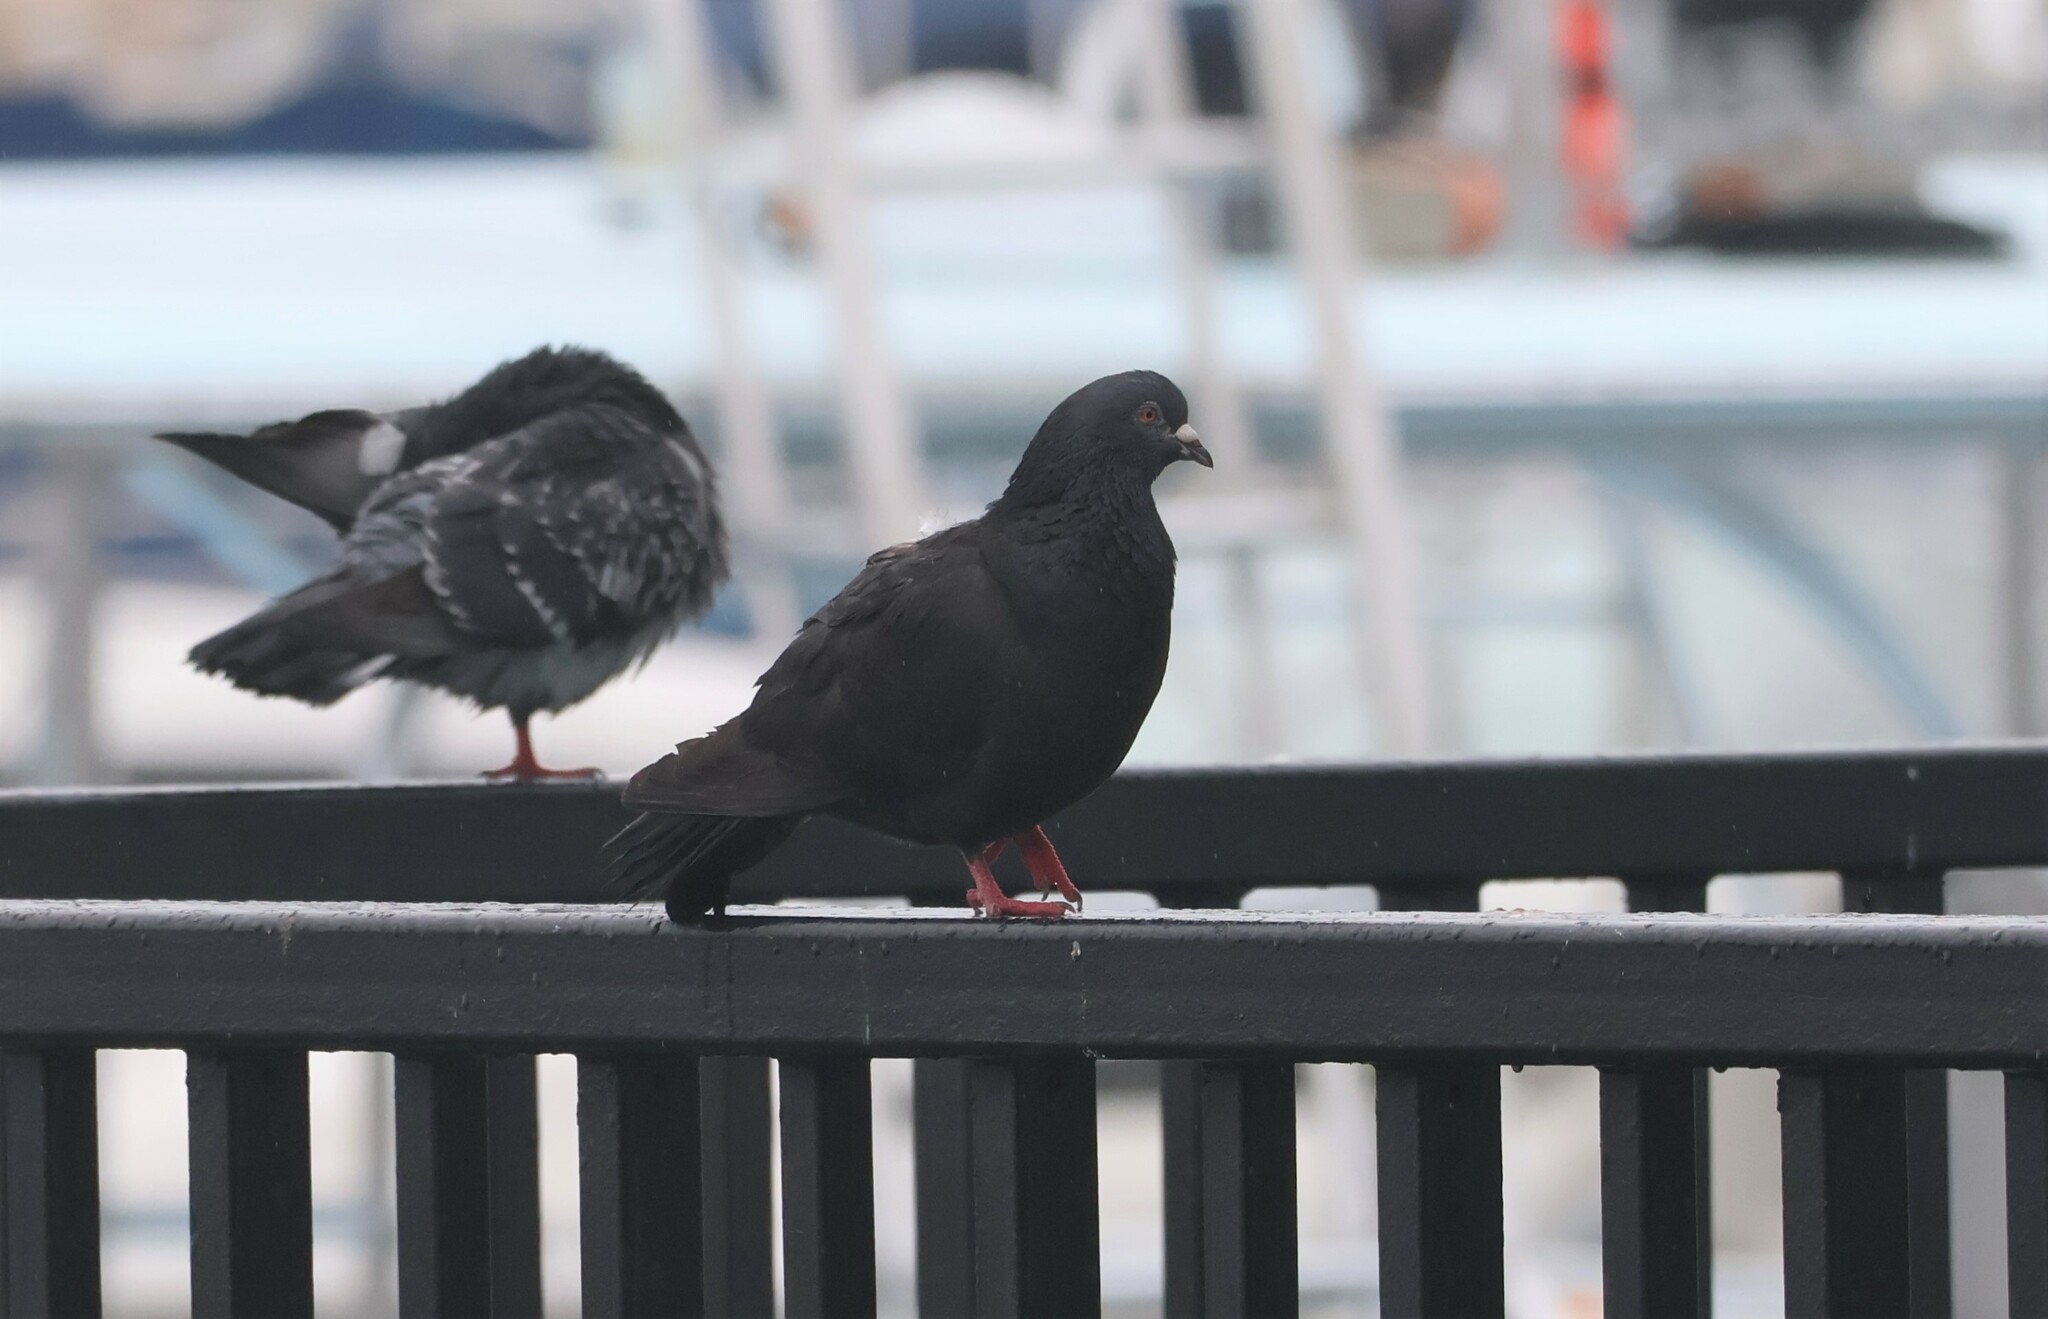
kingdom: Animalia
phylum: Chordata
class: Aves
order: Columbiformes
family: Columbidae
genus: Columba
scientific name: Columba livia
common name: Rock pigeon
